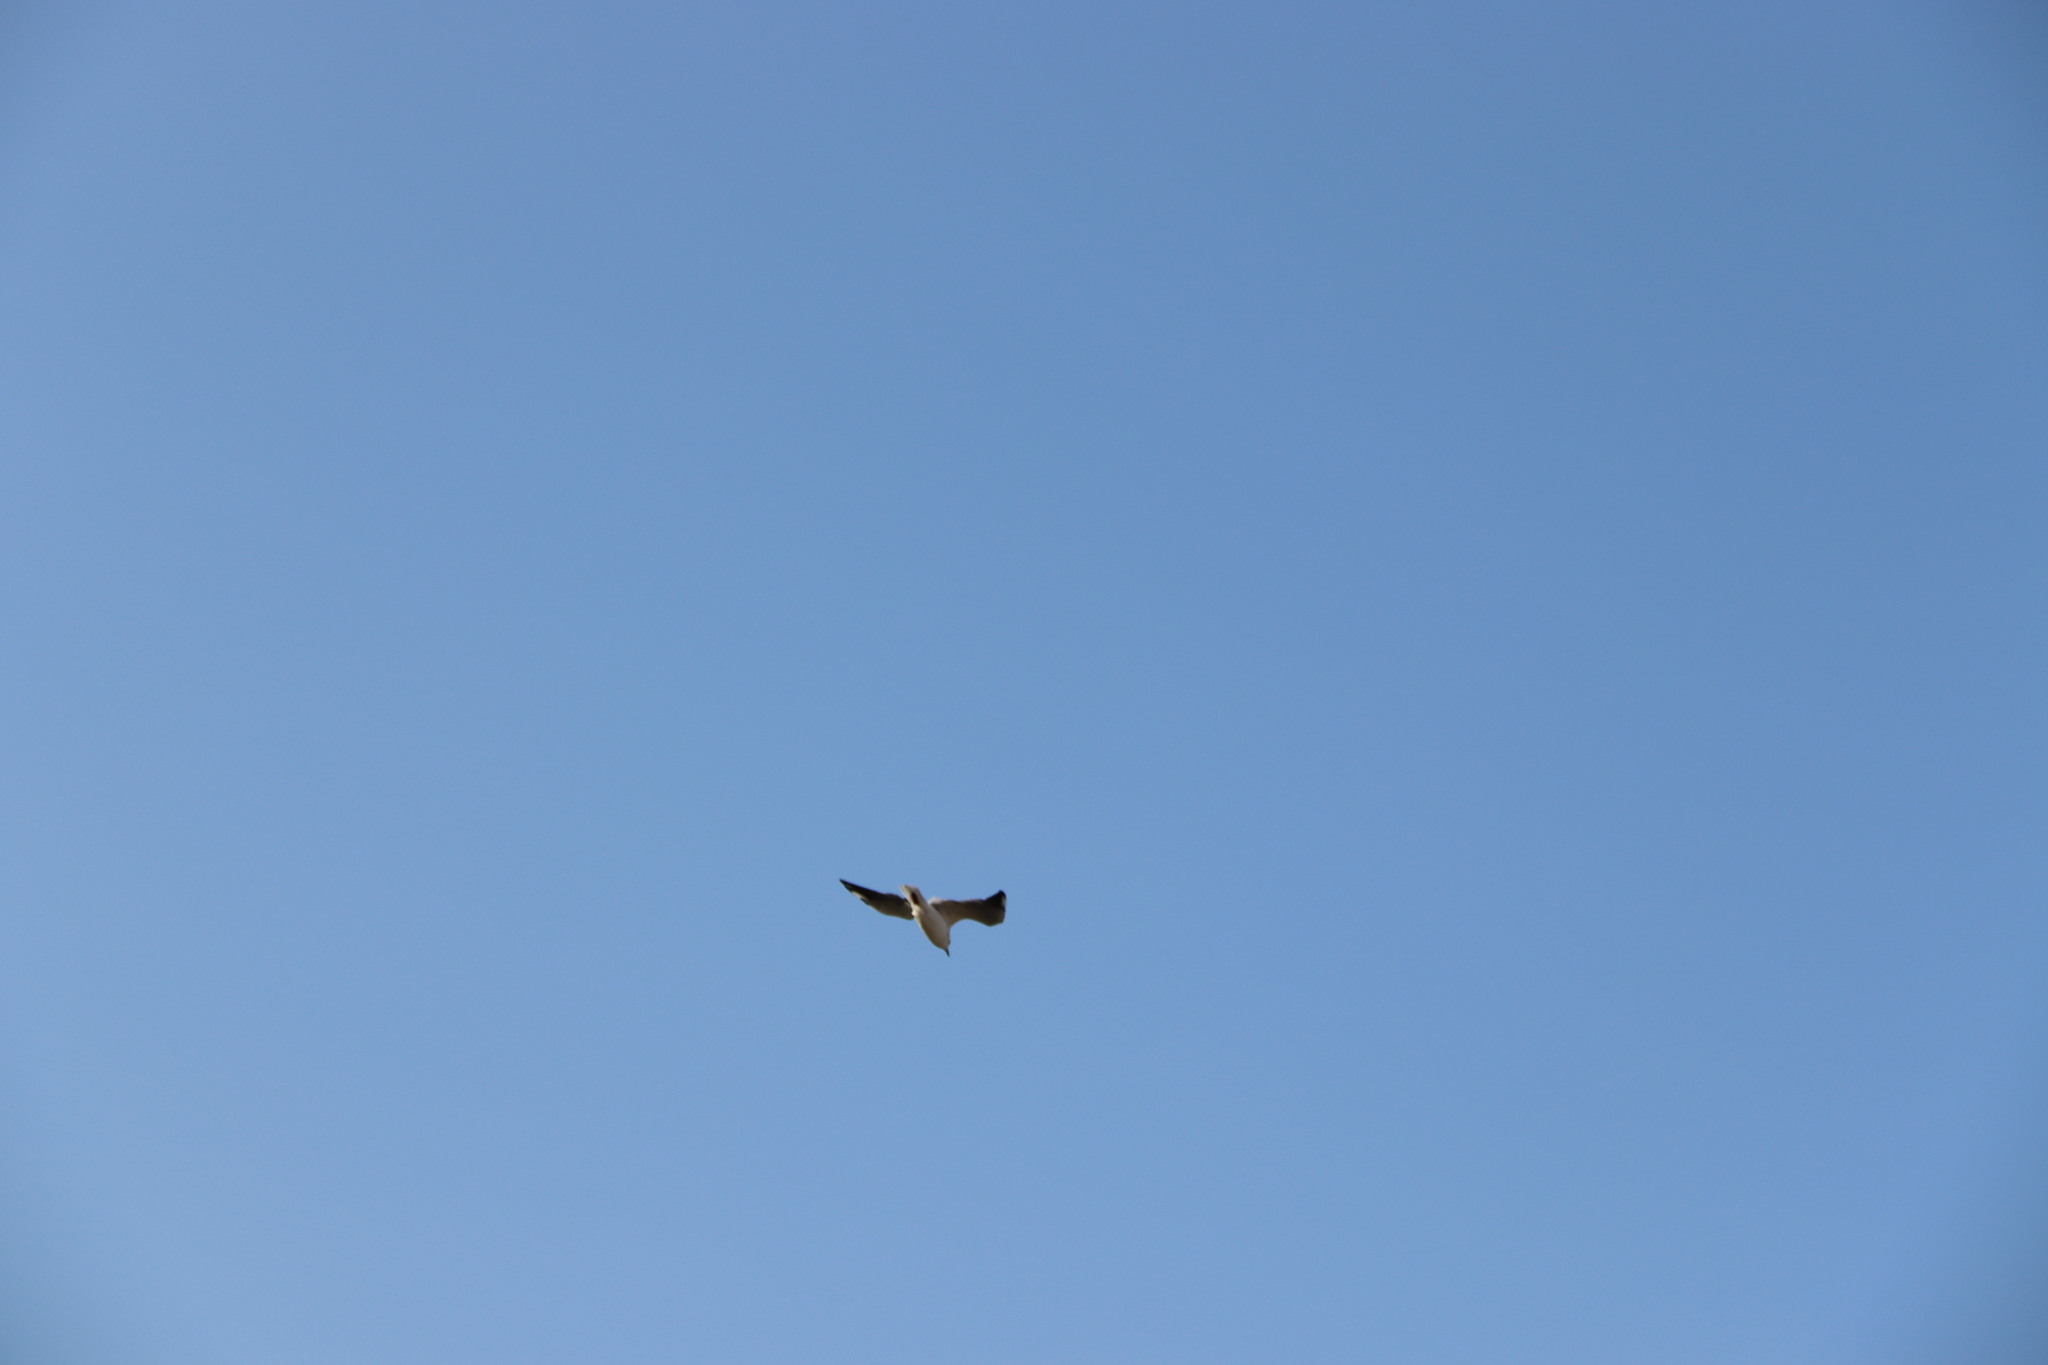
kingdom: Animalia
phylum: Chordata
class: Aves
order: Charadriiformes
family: Laridae
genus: Chroicocephalus
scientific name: Chroicocephalus ridibundus
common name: Black-headed gull
